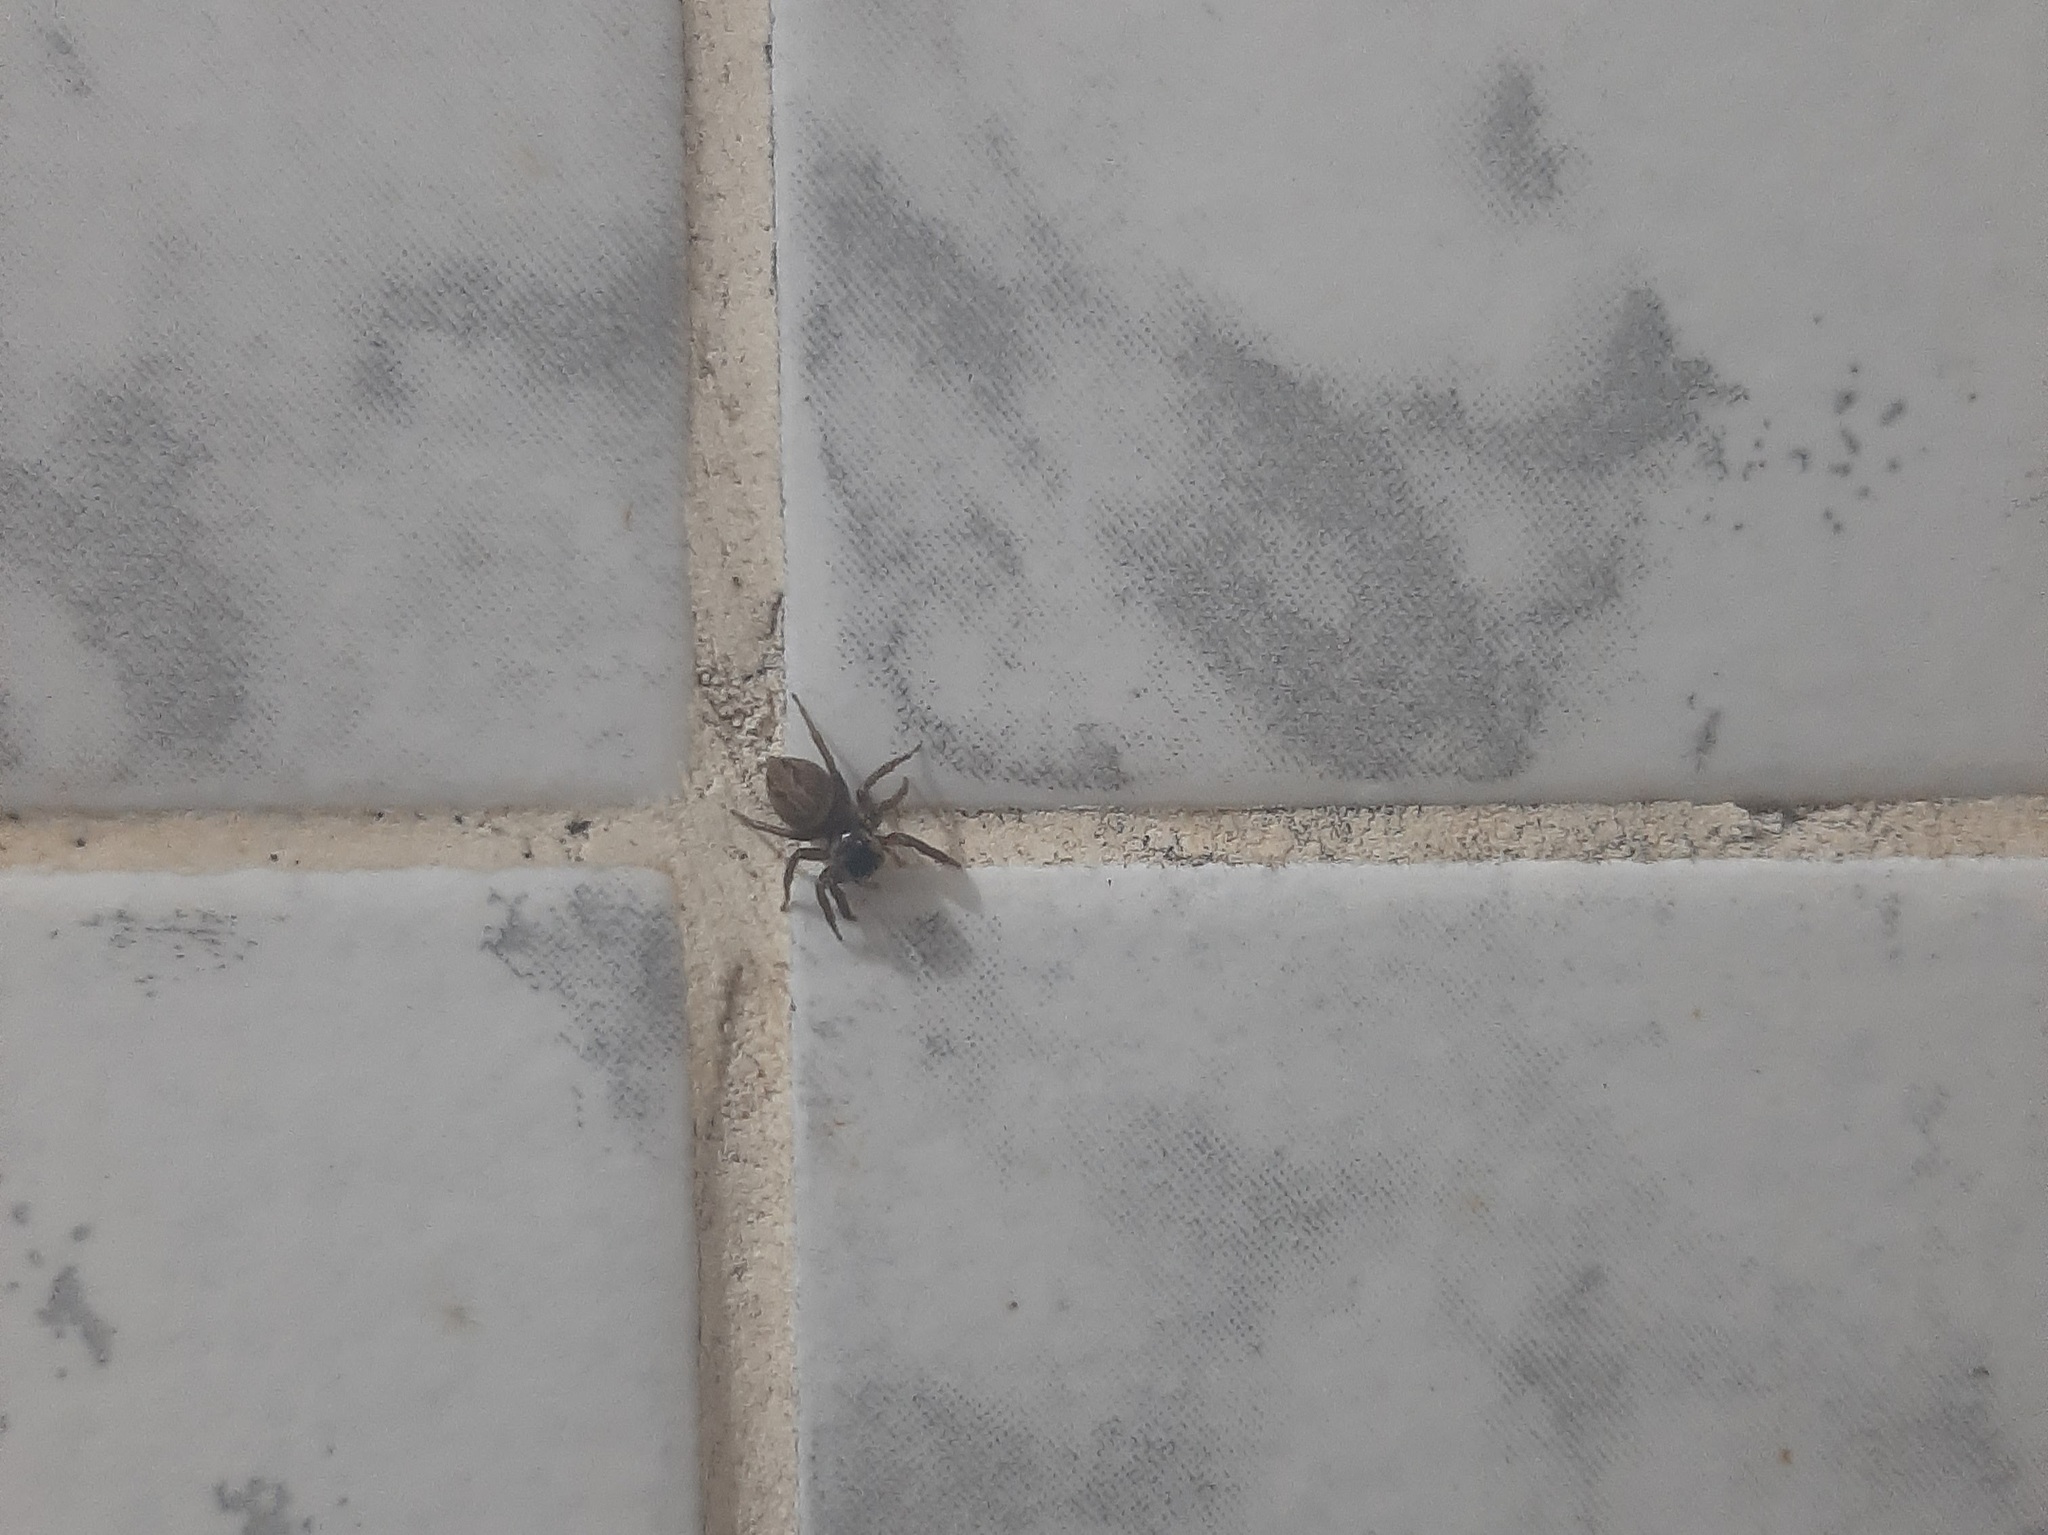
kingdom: Animalia
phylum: Arthropoda
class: Arachnida
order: Araneae
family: Salticidae
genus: Hasarius
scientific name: Hasarius adansoni
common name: Jumping spider
